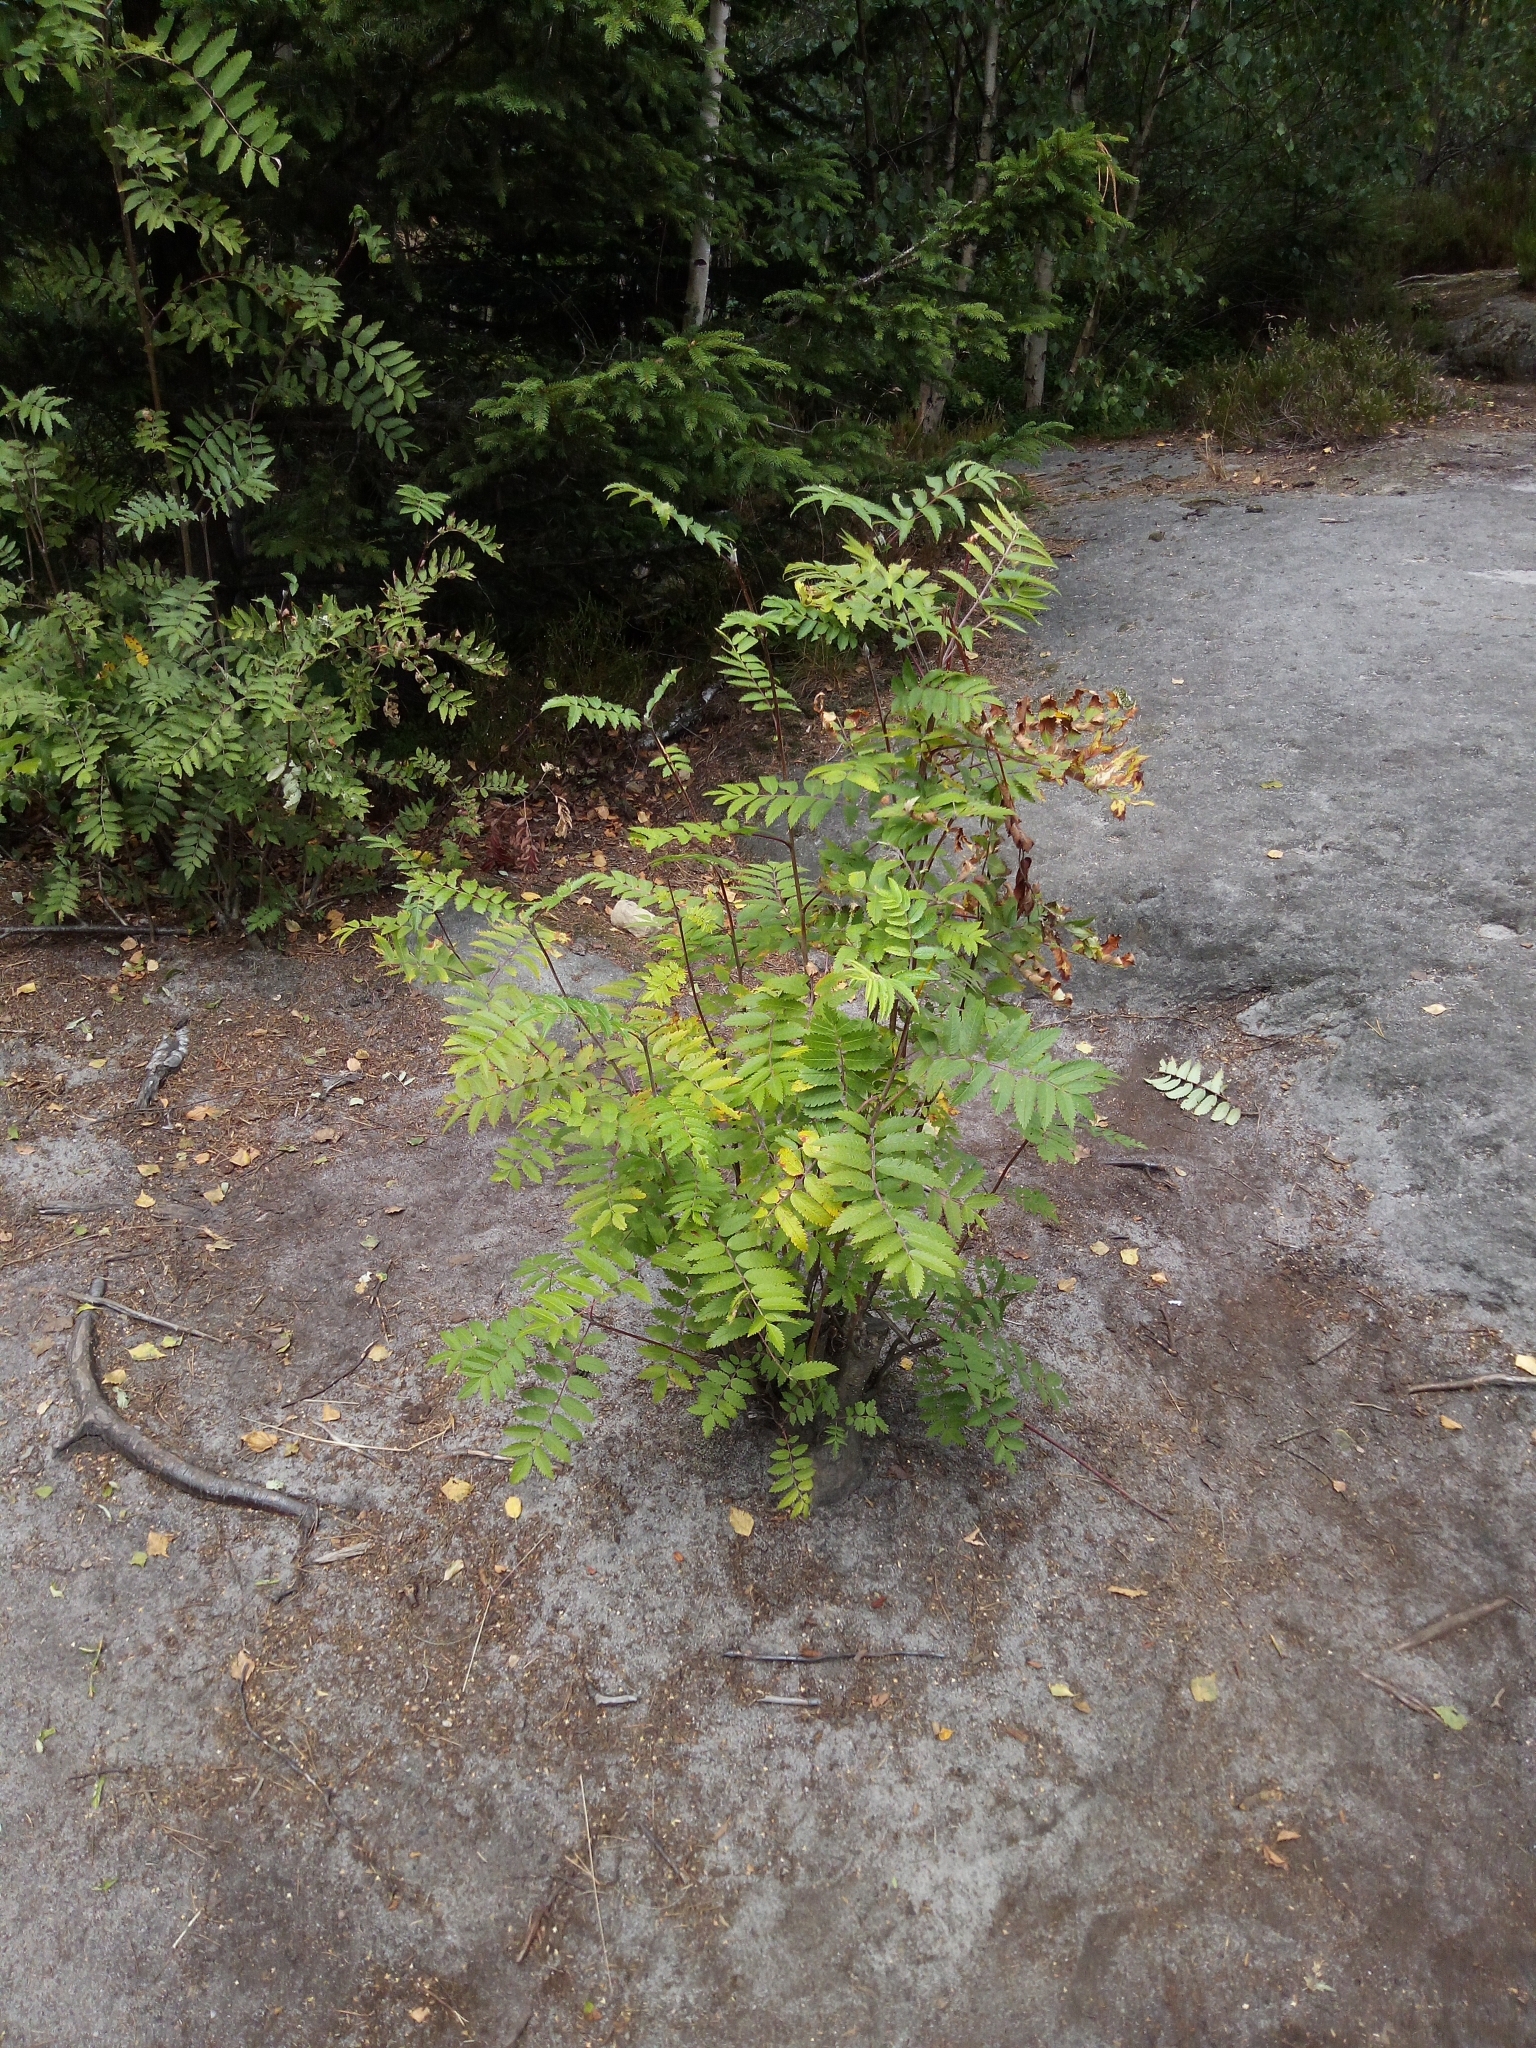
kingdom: Plantae
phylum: Tracheophyta
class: Magnoliopsida
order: Rosales
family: Rosaceae
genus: Sorbus
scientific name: Sorbus aucuparia
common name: Rowan
